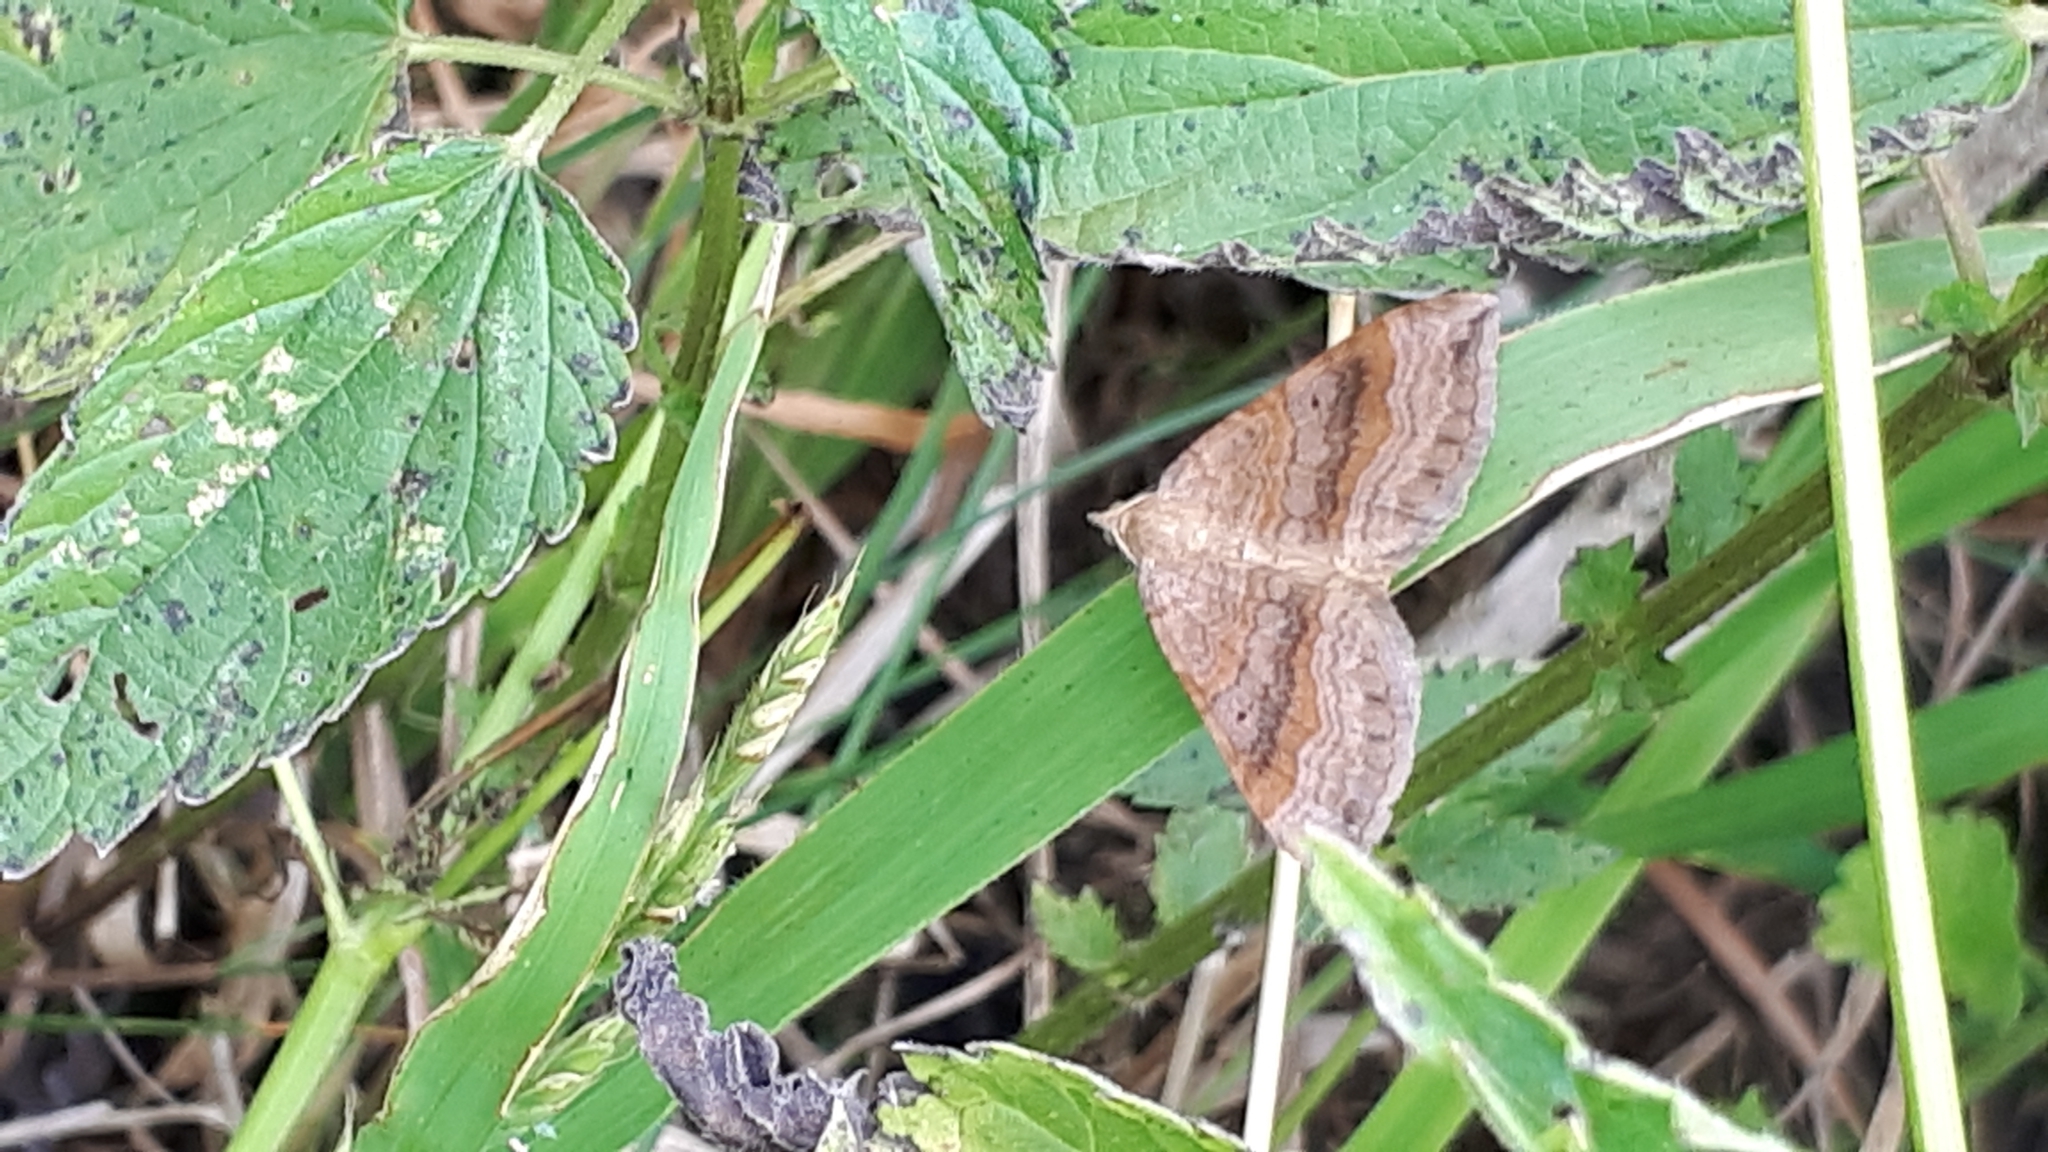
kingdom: Animalia
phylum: Arthropoda
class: Insecta
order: Lepidoptera
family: Geometridae
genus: Scotopteryx
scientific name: Scotopteryx chenopodiata
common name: Shaded broad-bar
